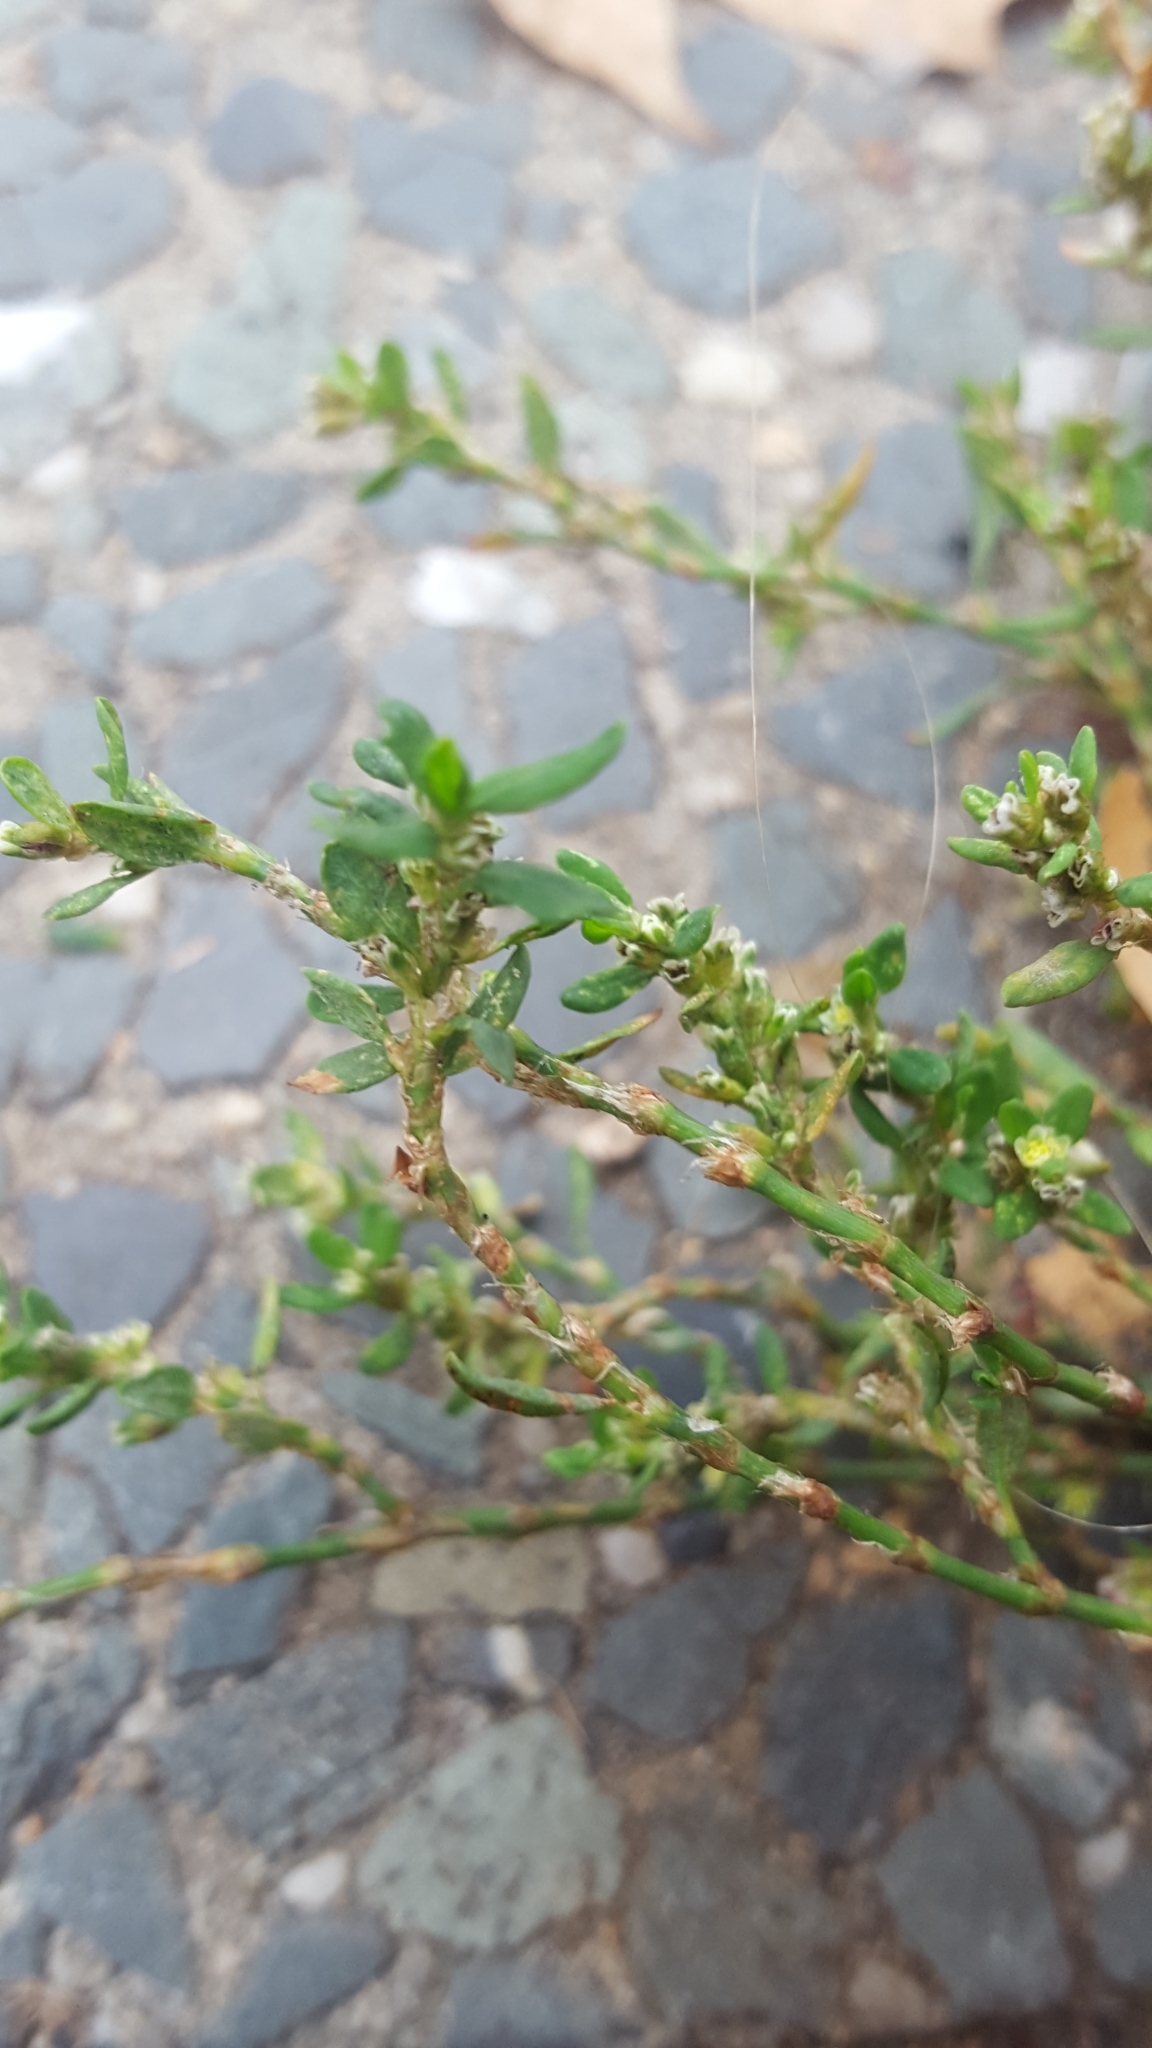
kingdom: Plantae
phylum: Tracheophyta
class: Magnoliopsida
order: Caryophyllales
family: Polygonaceae
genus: Polygonum
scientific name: Polygonum aviculare
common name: Prostrate knotweed
